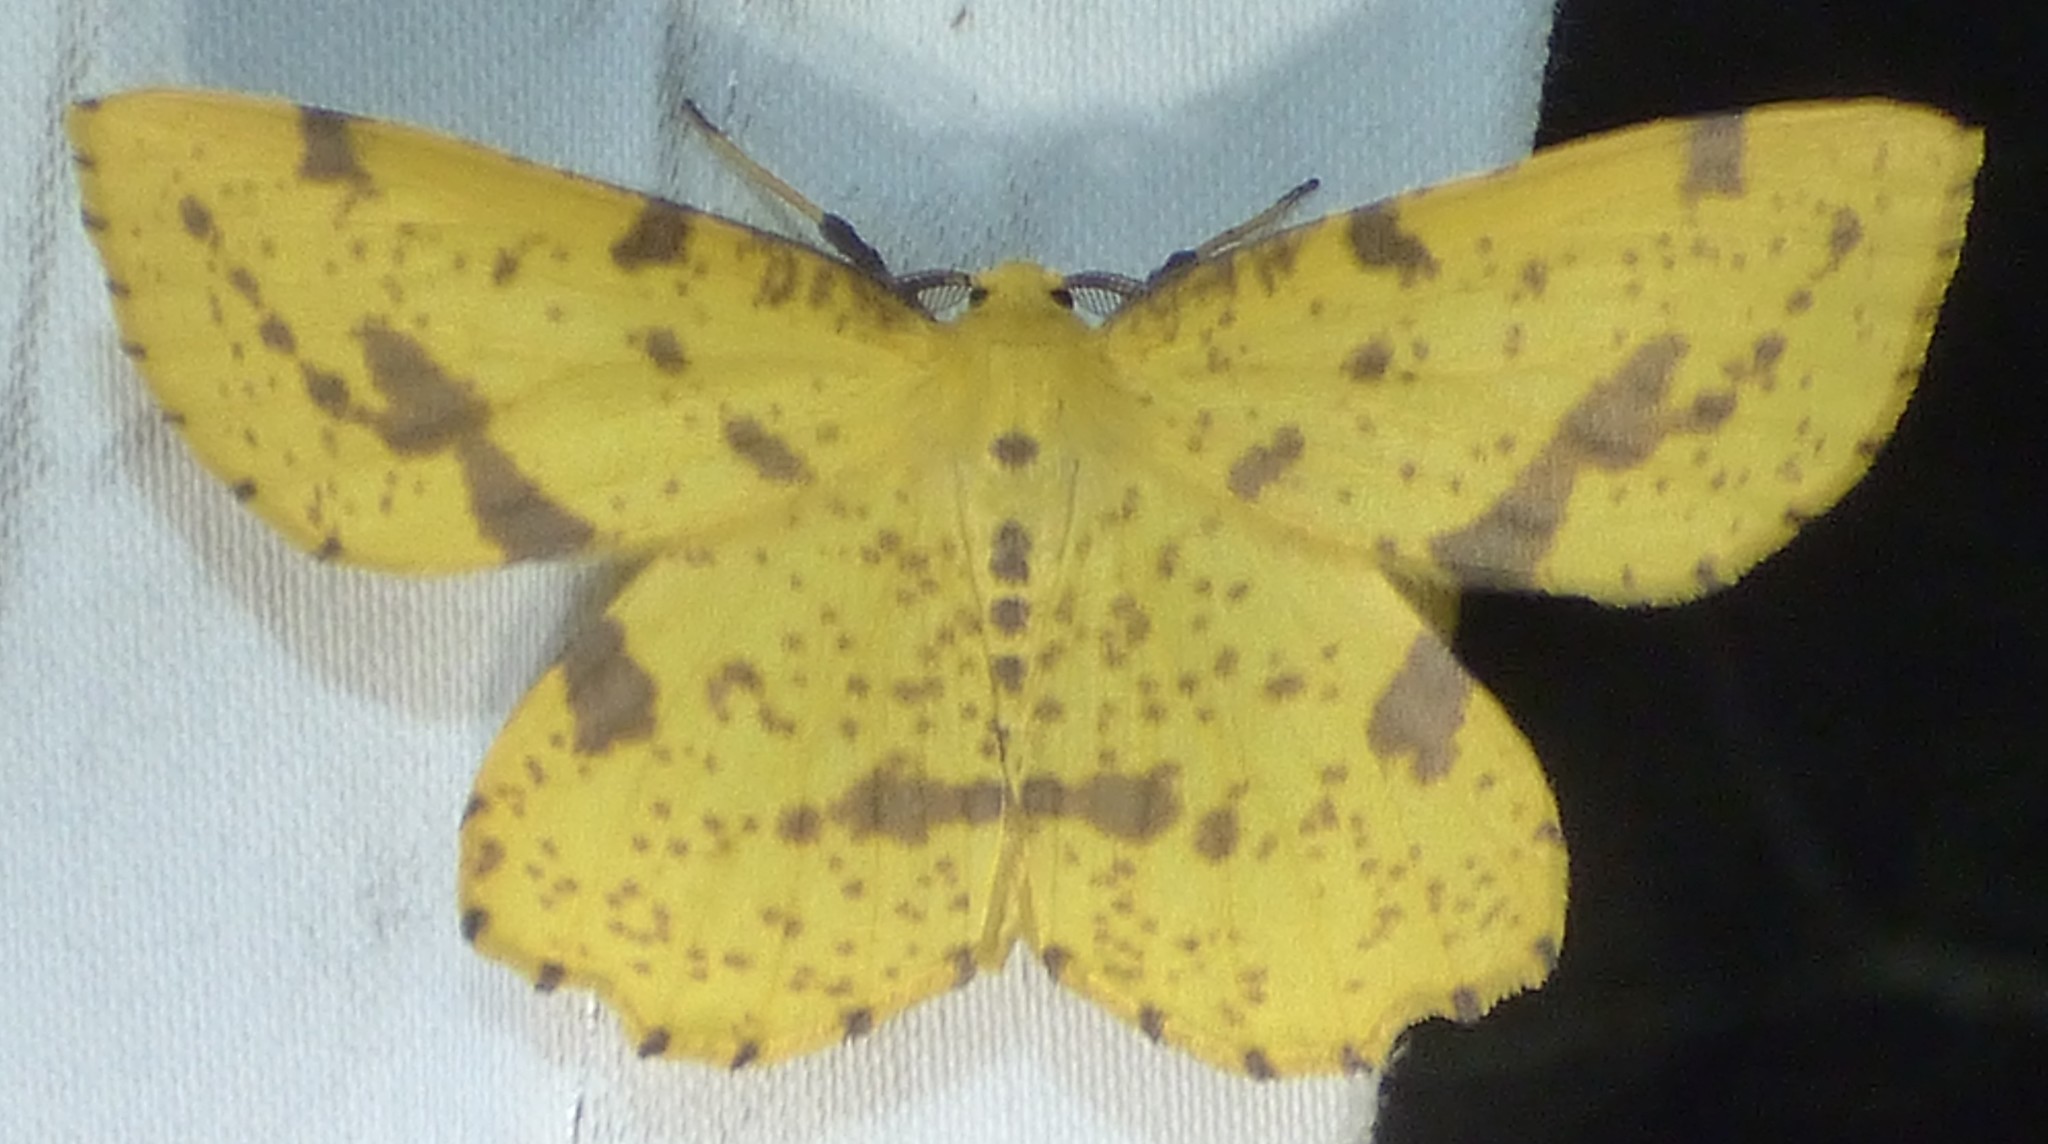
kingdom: Animalia
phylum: Arthropoda
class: Insecta
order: Lepidoptera
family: Geometridae
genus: Xanthotype
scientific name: Xanthotype
